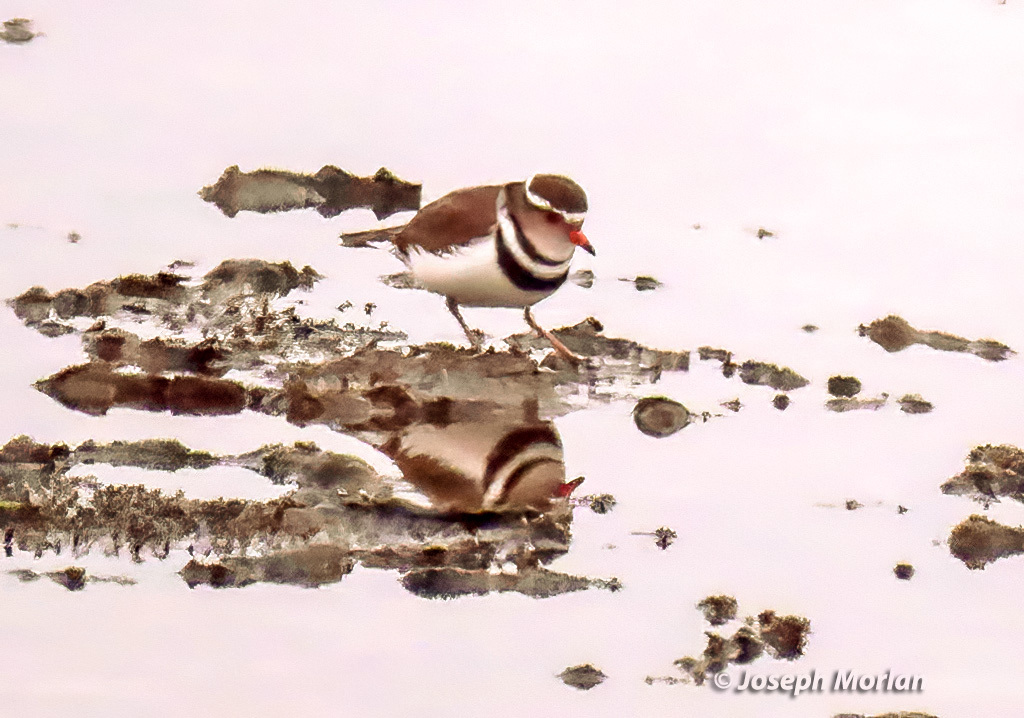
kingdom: Animalia
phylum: Chordata
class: Aves
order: Charadriiformes
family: Charadriidae
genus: Charadrius
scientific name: Charadrius tricollaris
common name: Three-banded plover
